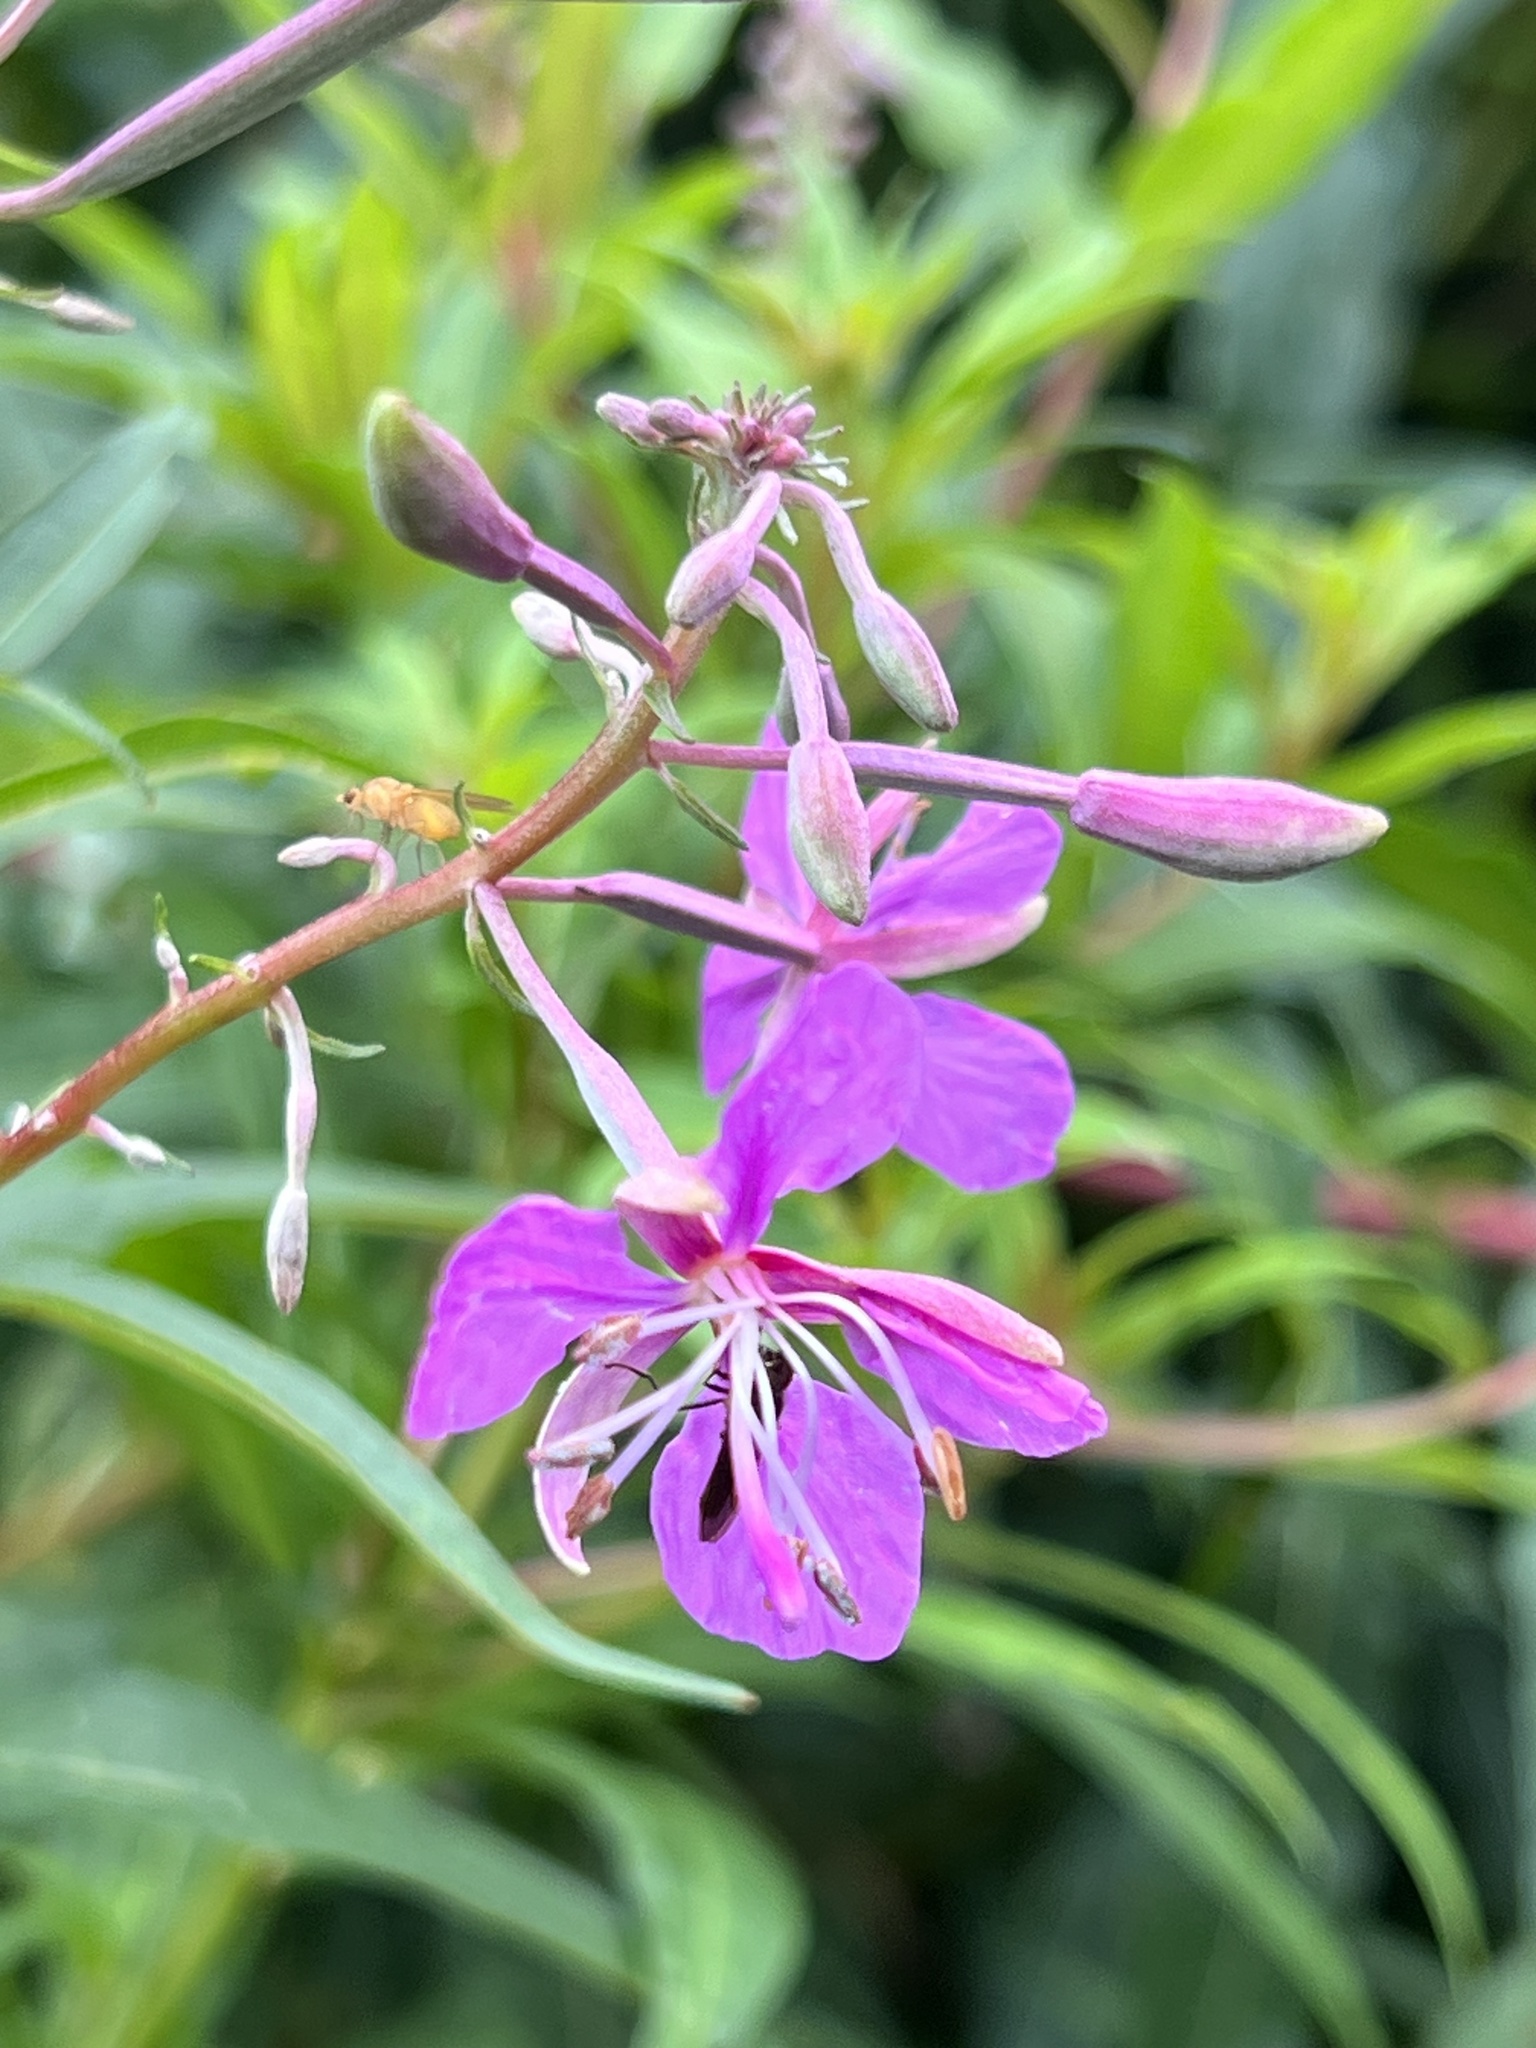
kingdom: Plantae
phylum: Tracheophyta
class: Magnoliopsida
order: Myrtales
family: Onagraceae
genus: Chamaenerion
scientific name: Chamaenerion angustifolium
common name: Fireweed
